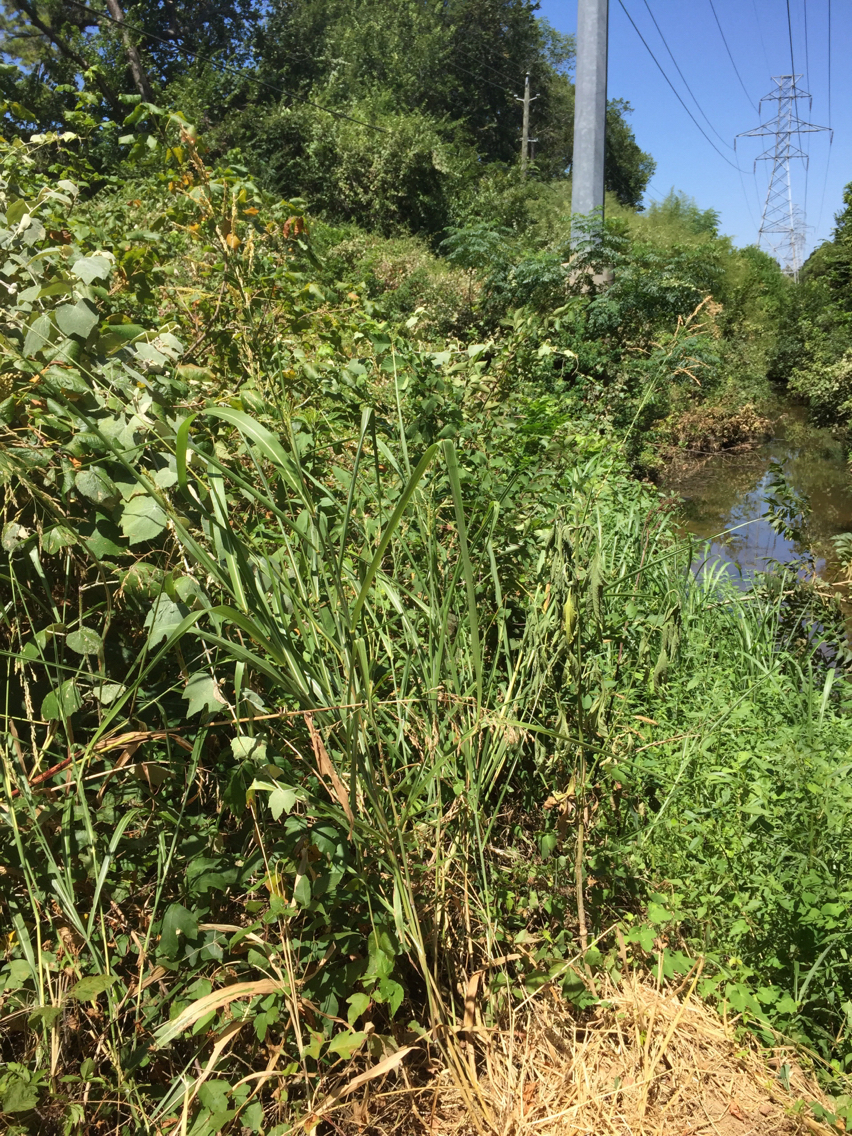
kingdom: Plantae
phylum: Tracheophyta
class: Liliopsida
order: Poales
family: Poaceae
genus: Sorghum
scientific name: Sorghum halepense
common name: Johnson-grass
